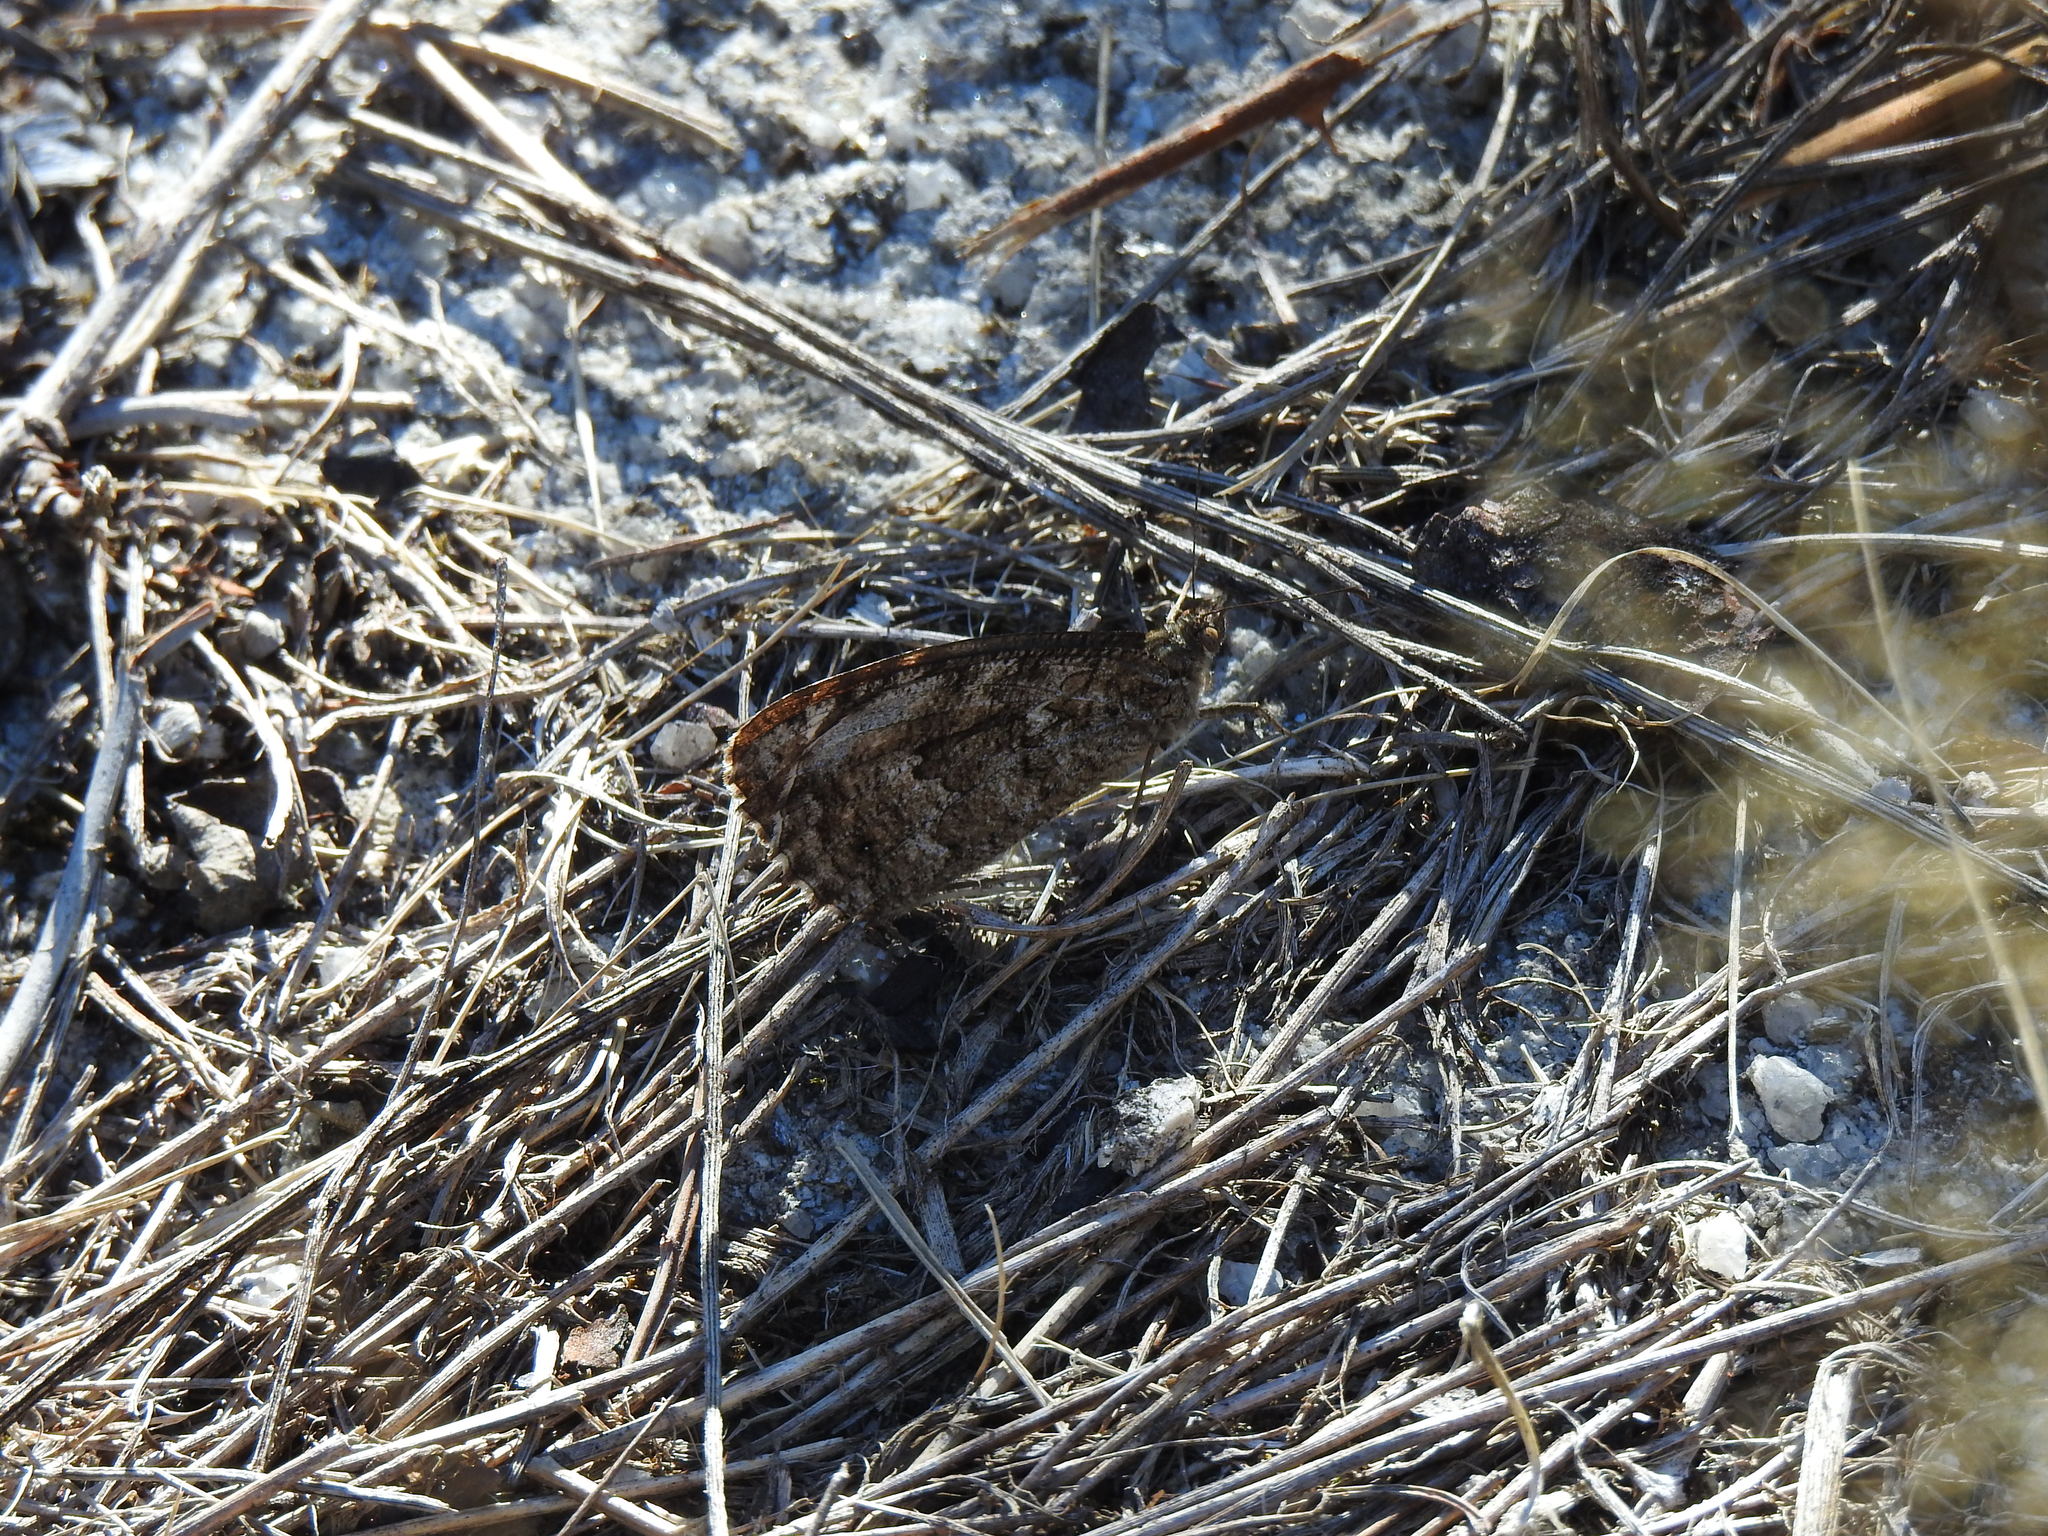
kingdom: Animalia
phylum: Arthropoda
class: Insecta
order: Lepidoptera
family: Nymphalidae
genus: Hipparchia
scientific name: Hipparchia semele
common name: Grayling
